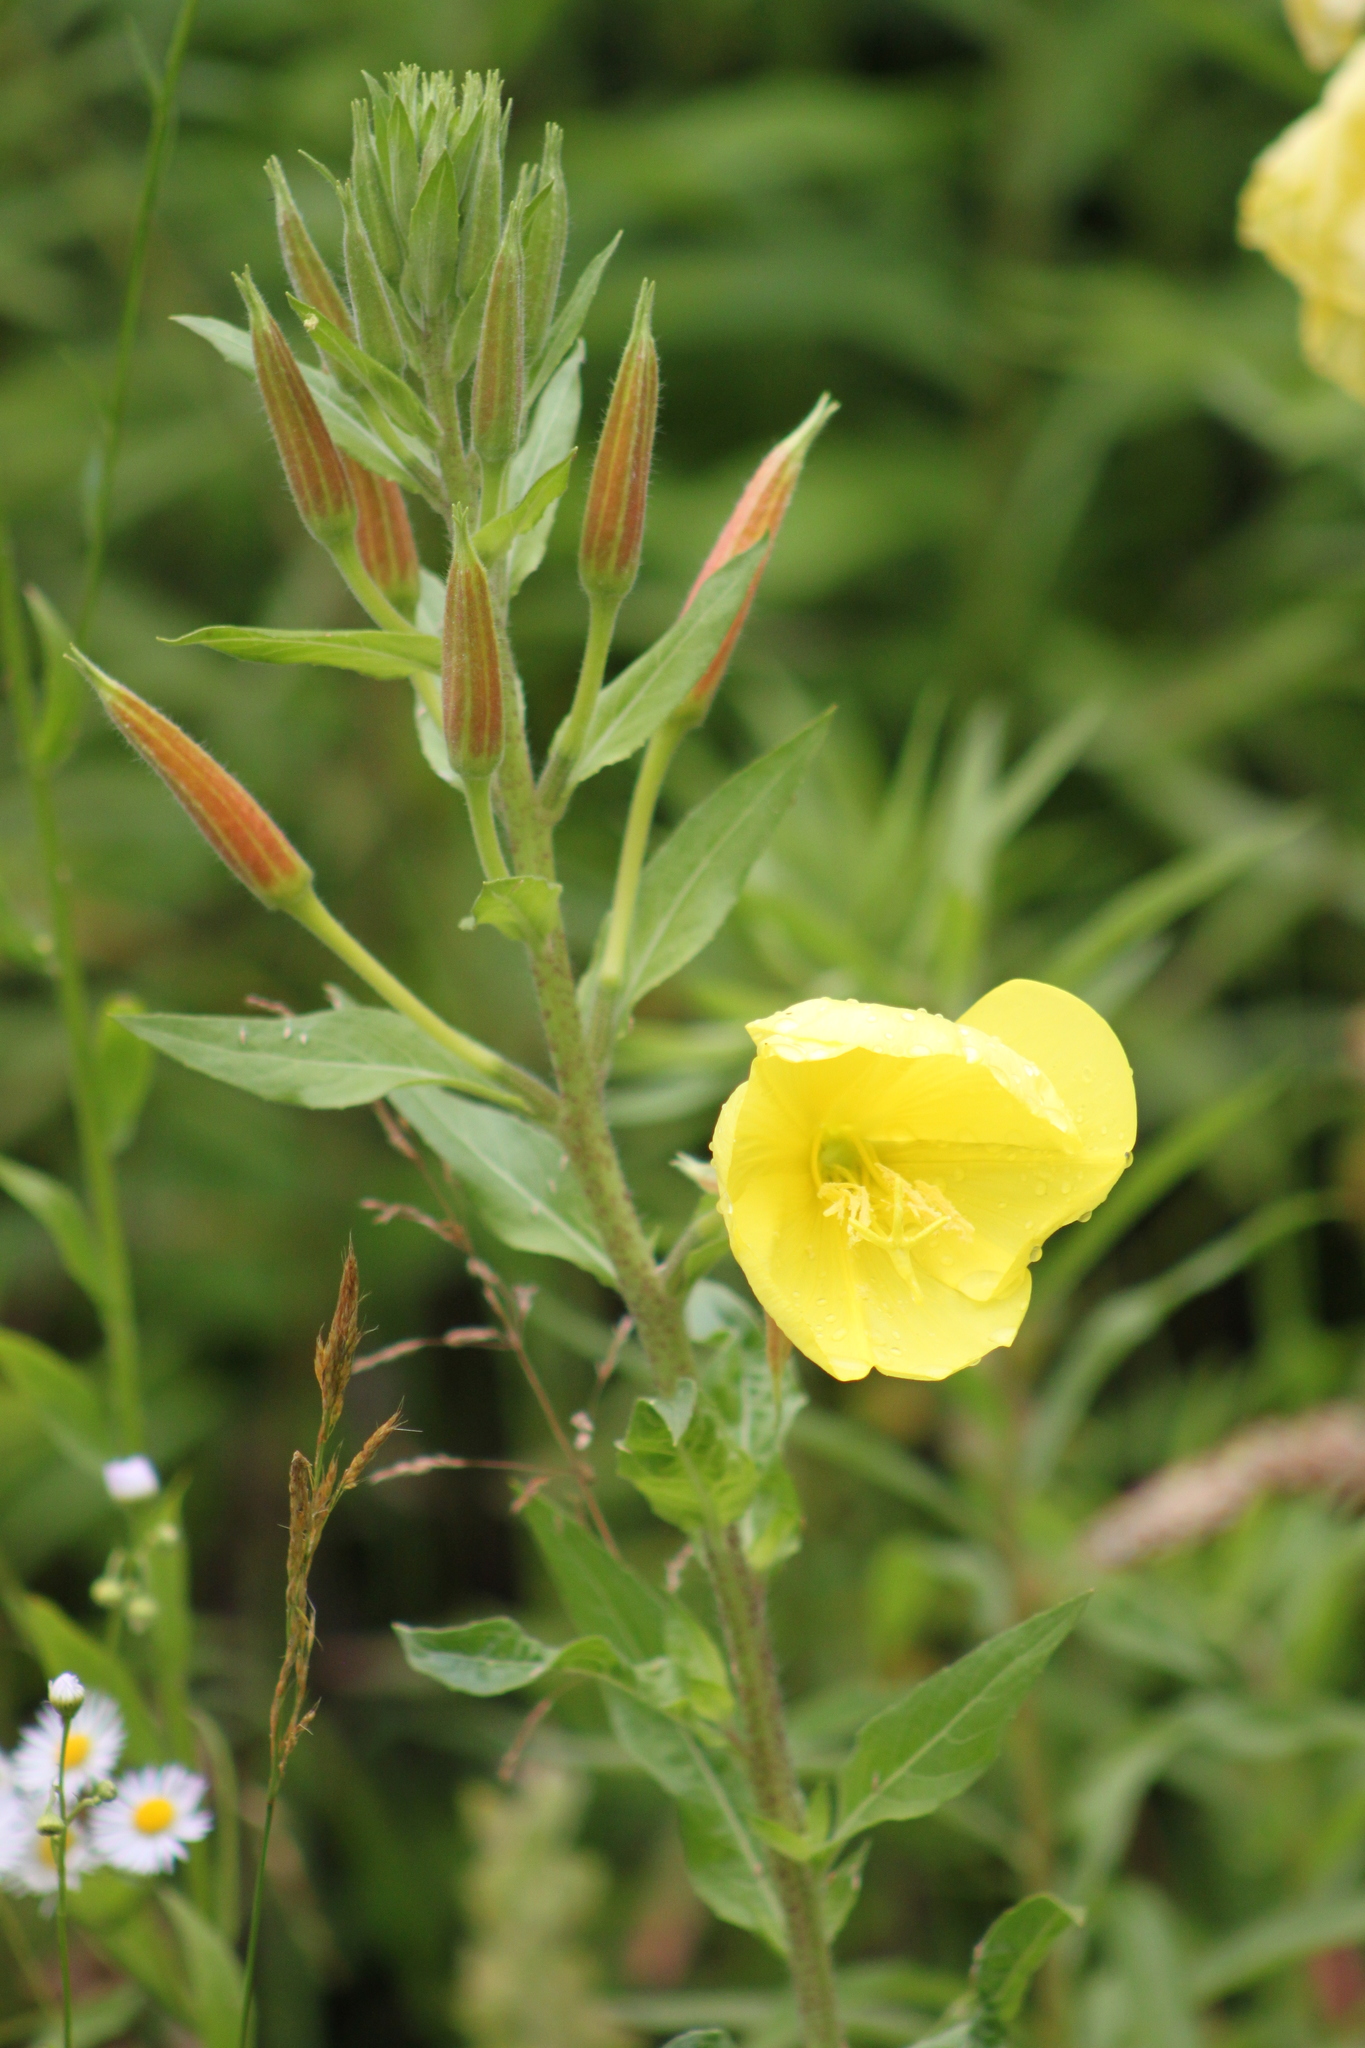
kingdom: Plantae
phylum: Tracheophyta
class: Magnoliopsida
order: Myrtales
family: Onagraceae
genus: Oenothera
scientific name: Oenothera glazioviana
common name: Large-flowered evening-primrose
